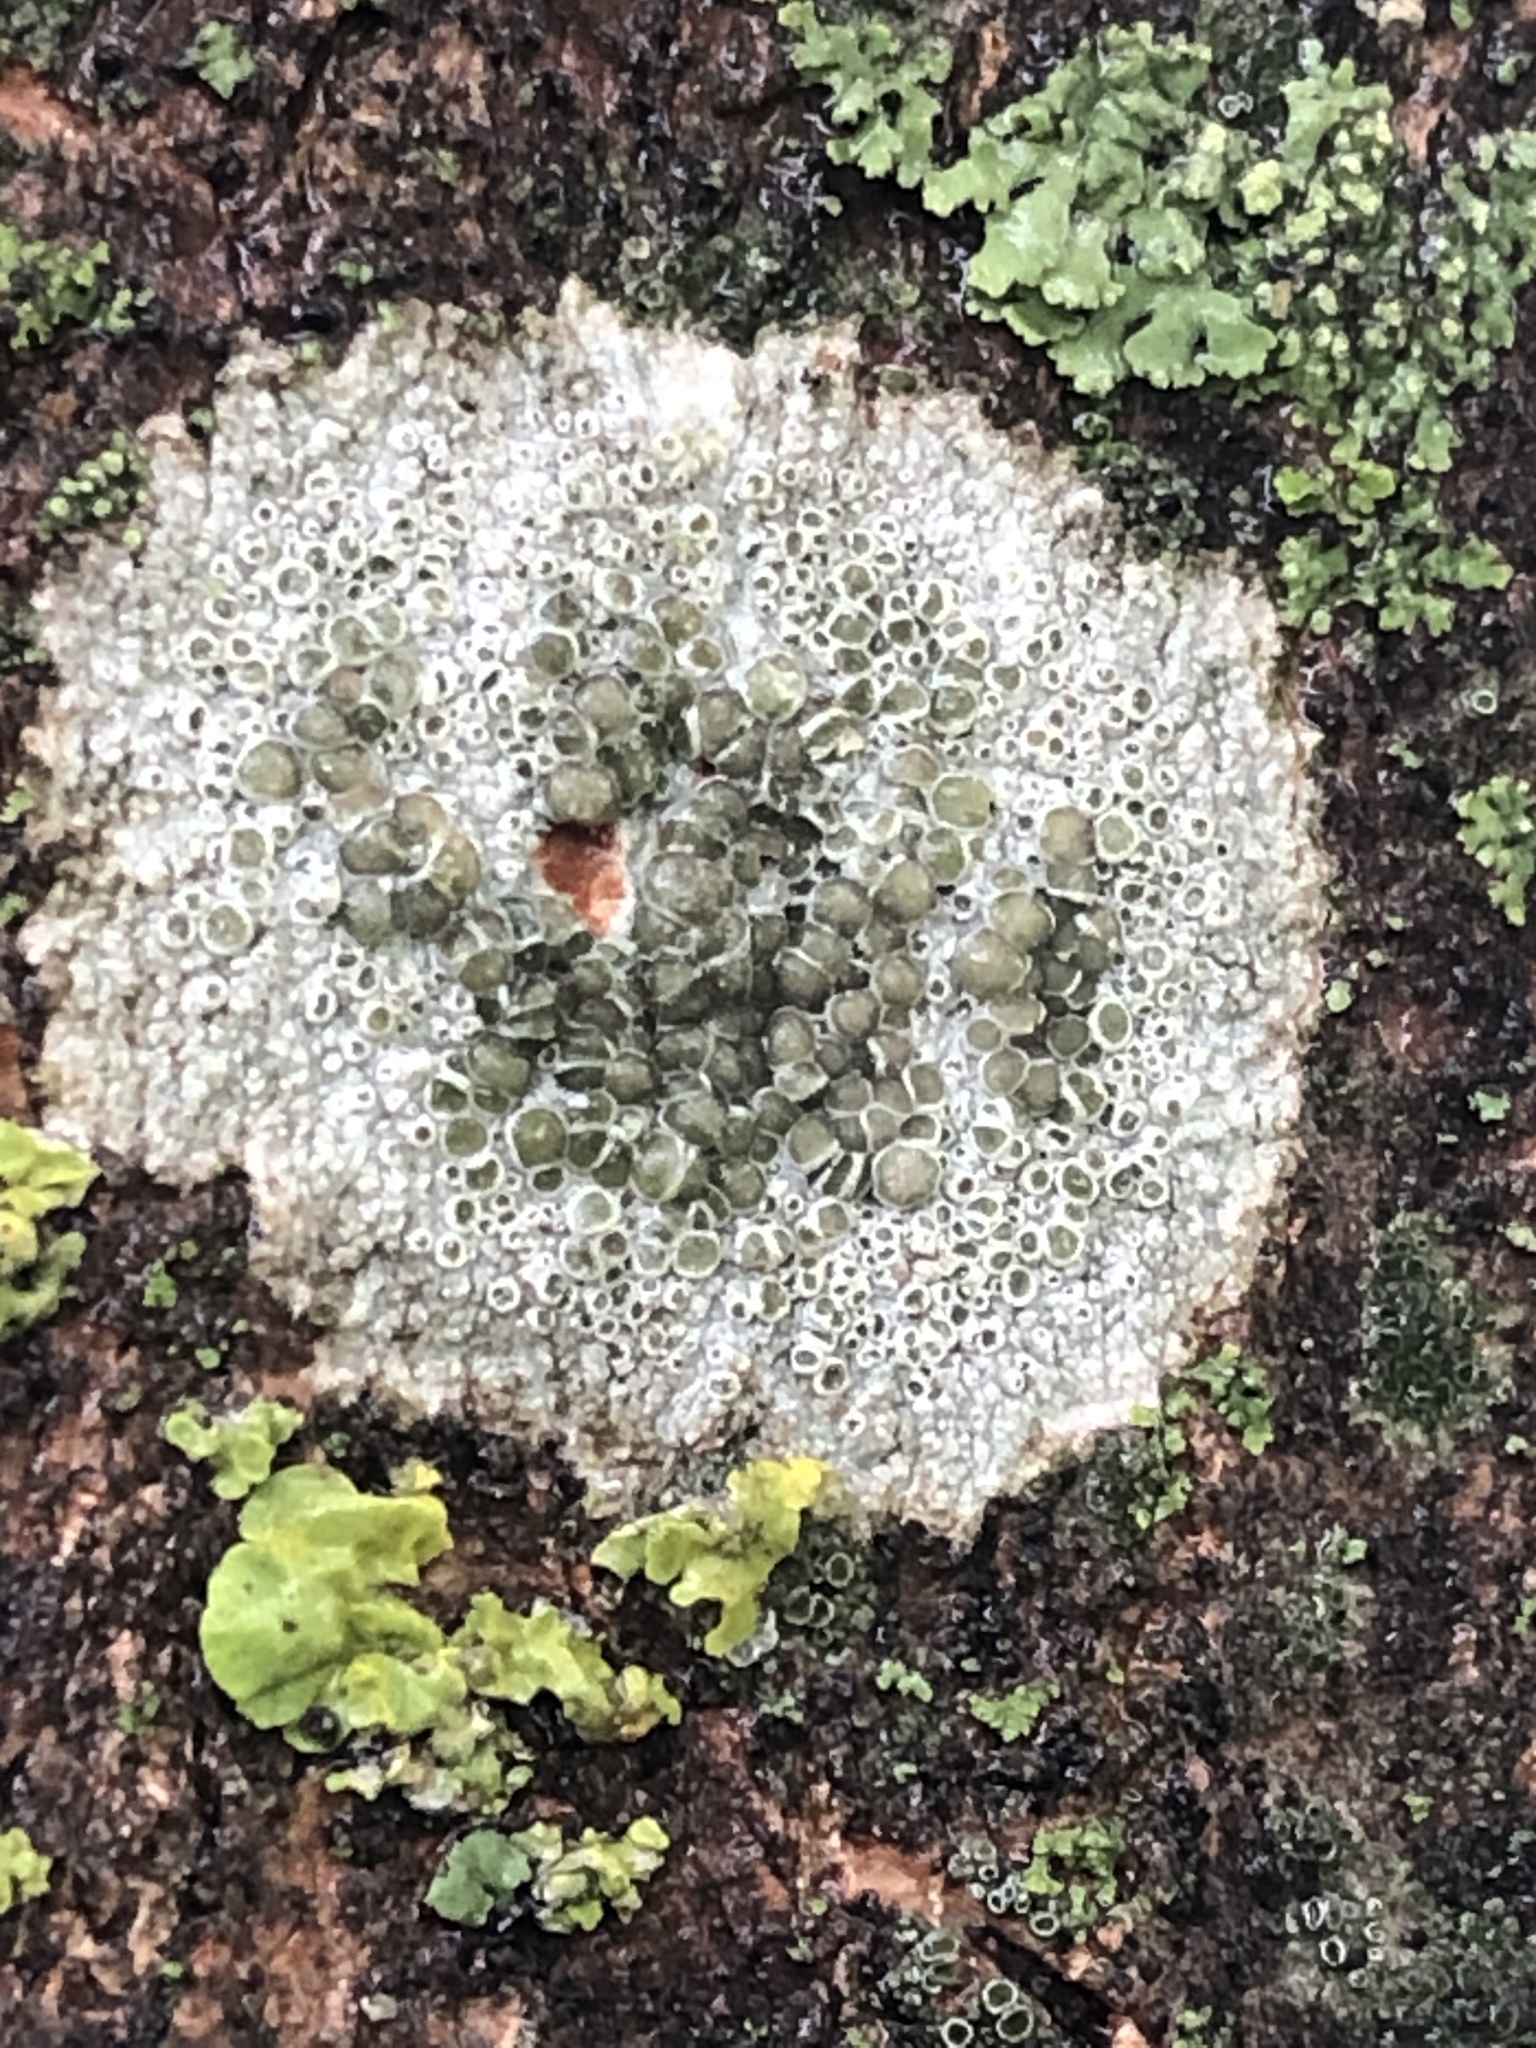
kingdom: Fungi
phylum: Ascomycota
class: Lecanoromycetes
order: Lecanorales
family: Lecanoraceae
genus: Lecanora
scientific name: Lecanora cenisia
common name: Smoky rim lichen
